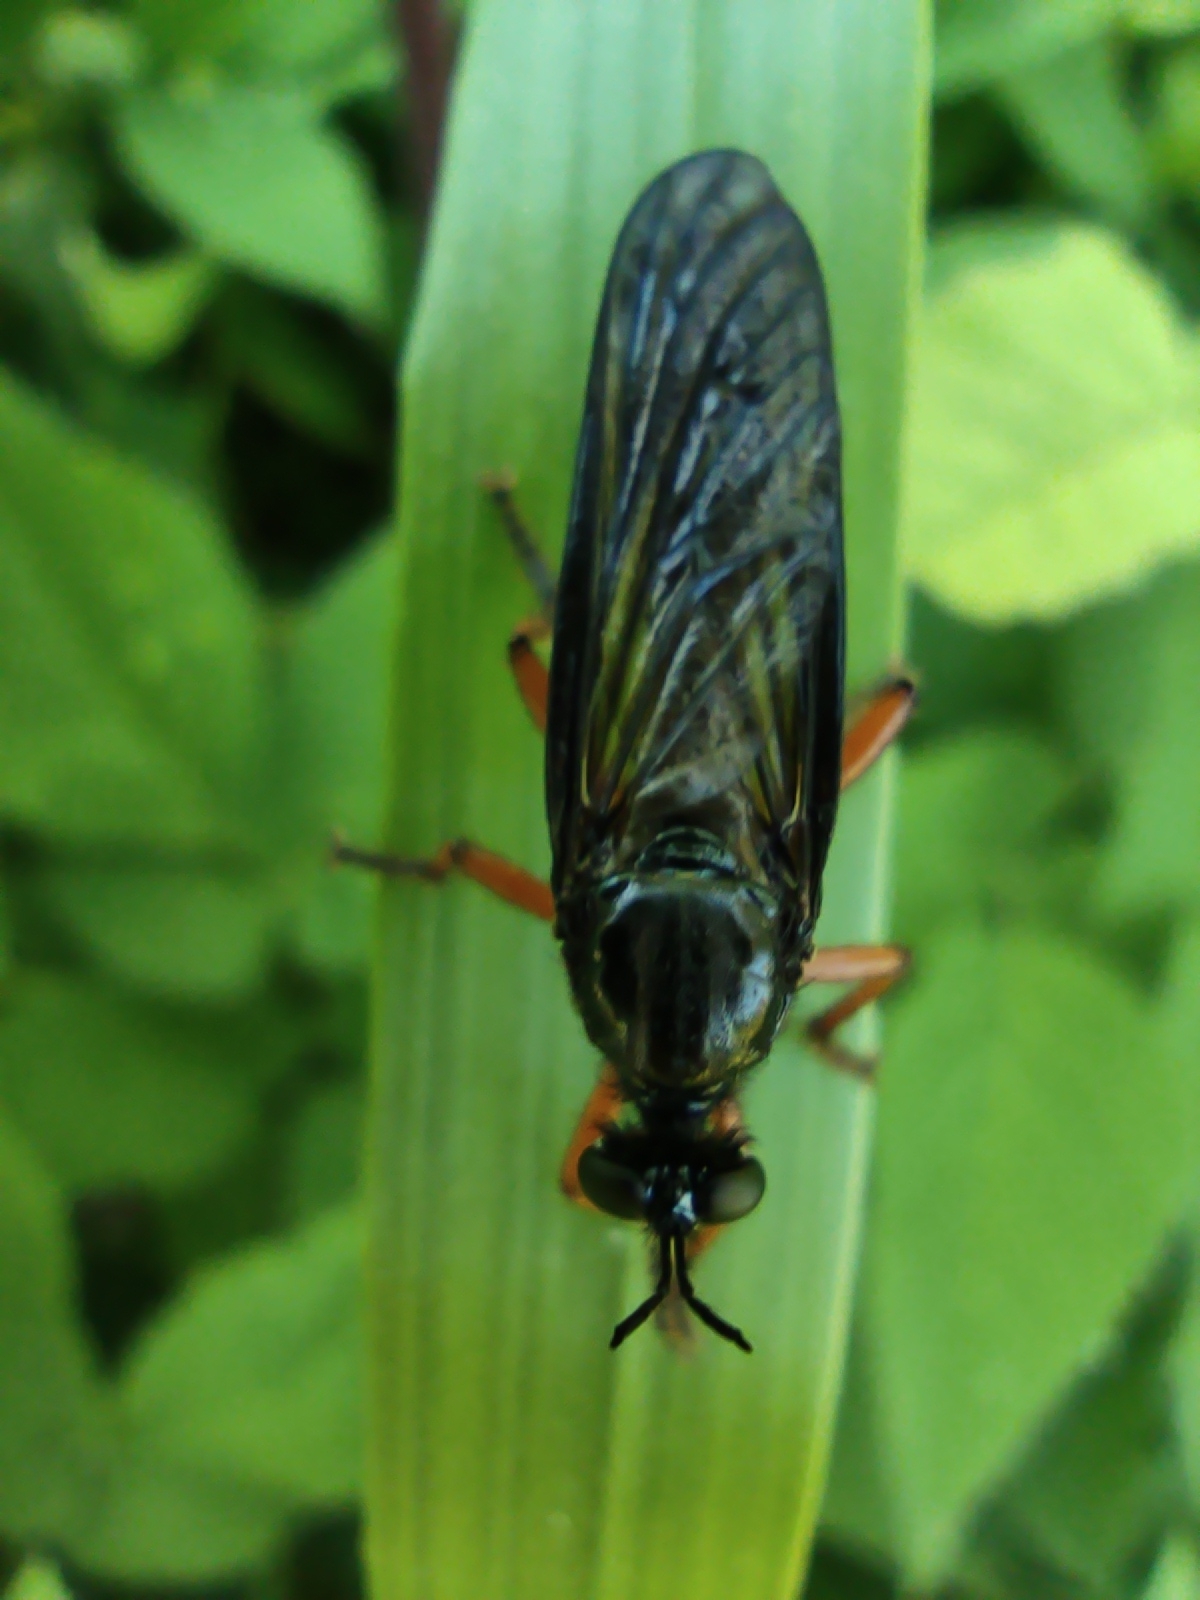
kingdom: Animalia
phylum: Arthropoda
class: Insecta
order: Diptera
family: Asilidae
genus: Dioctria
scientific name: Dioctria oelandica
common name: Orange-legged robberfly
